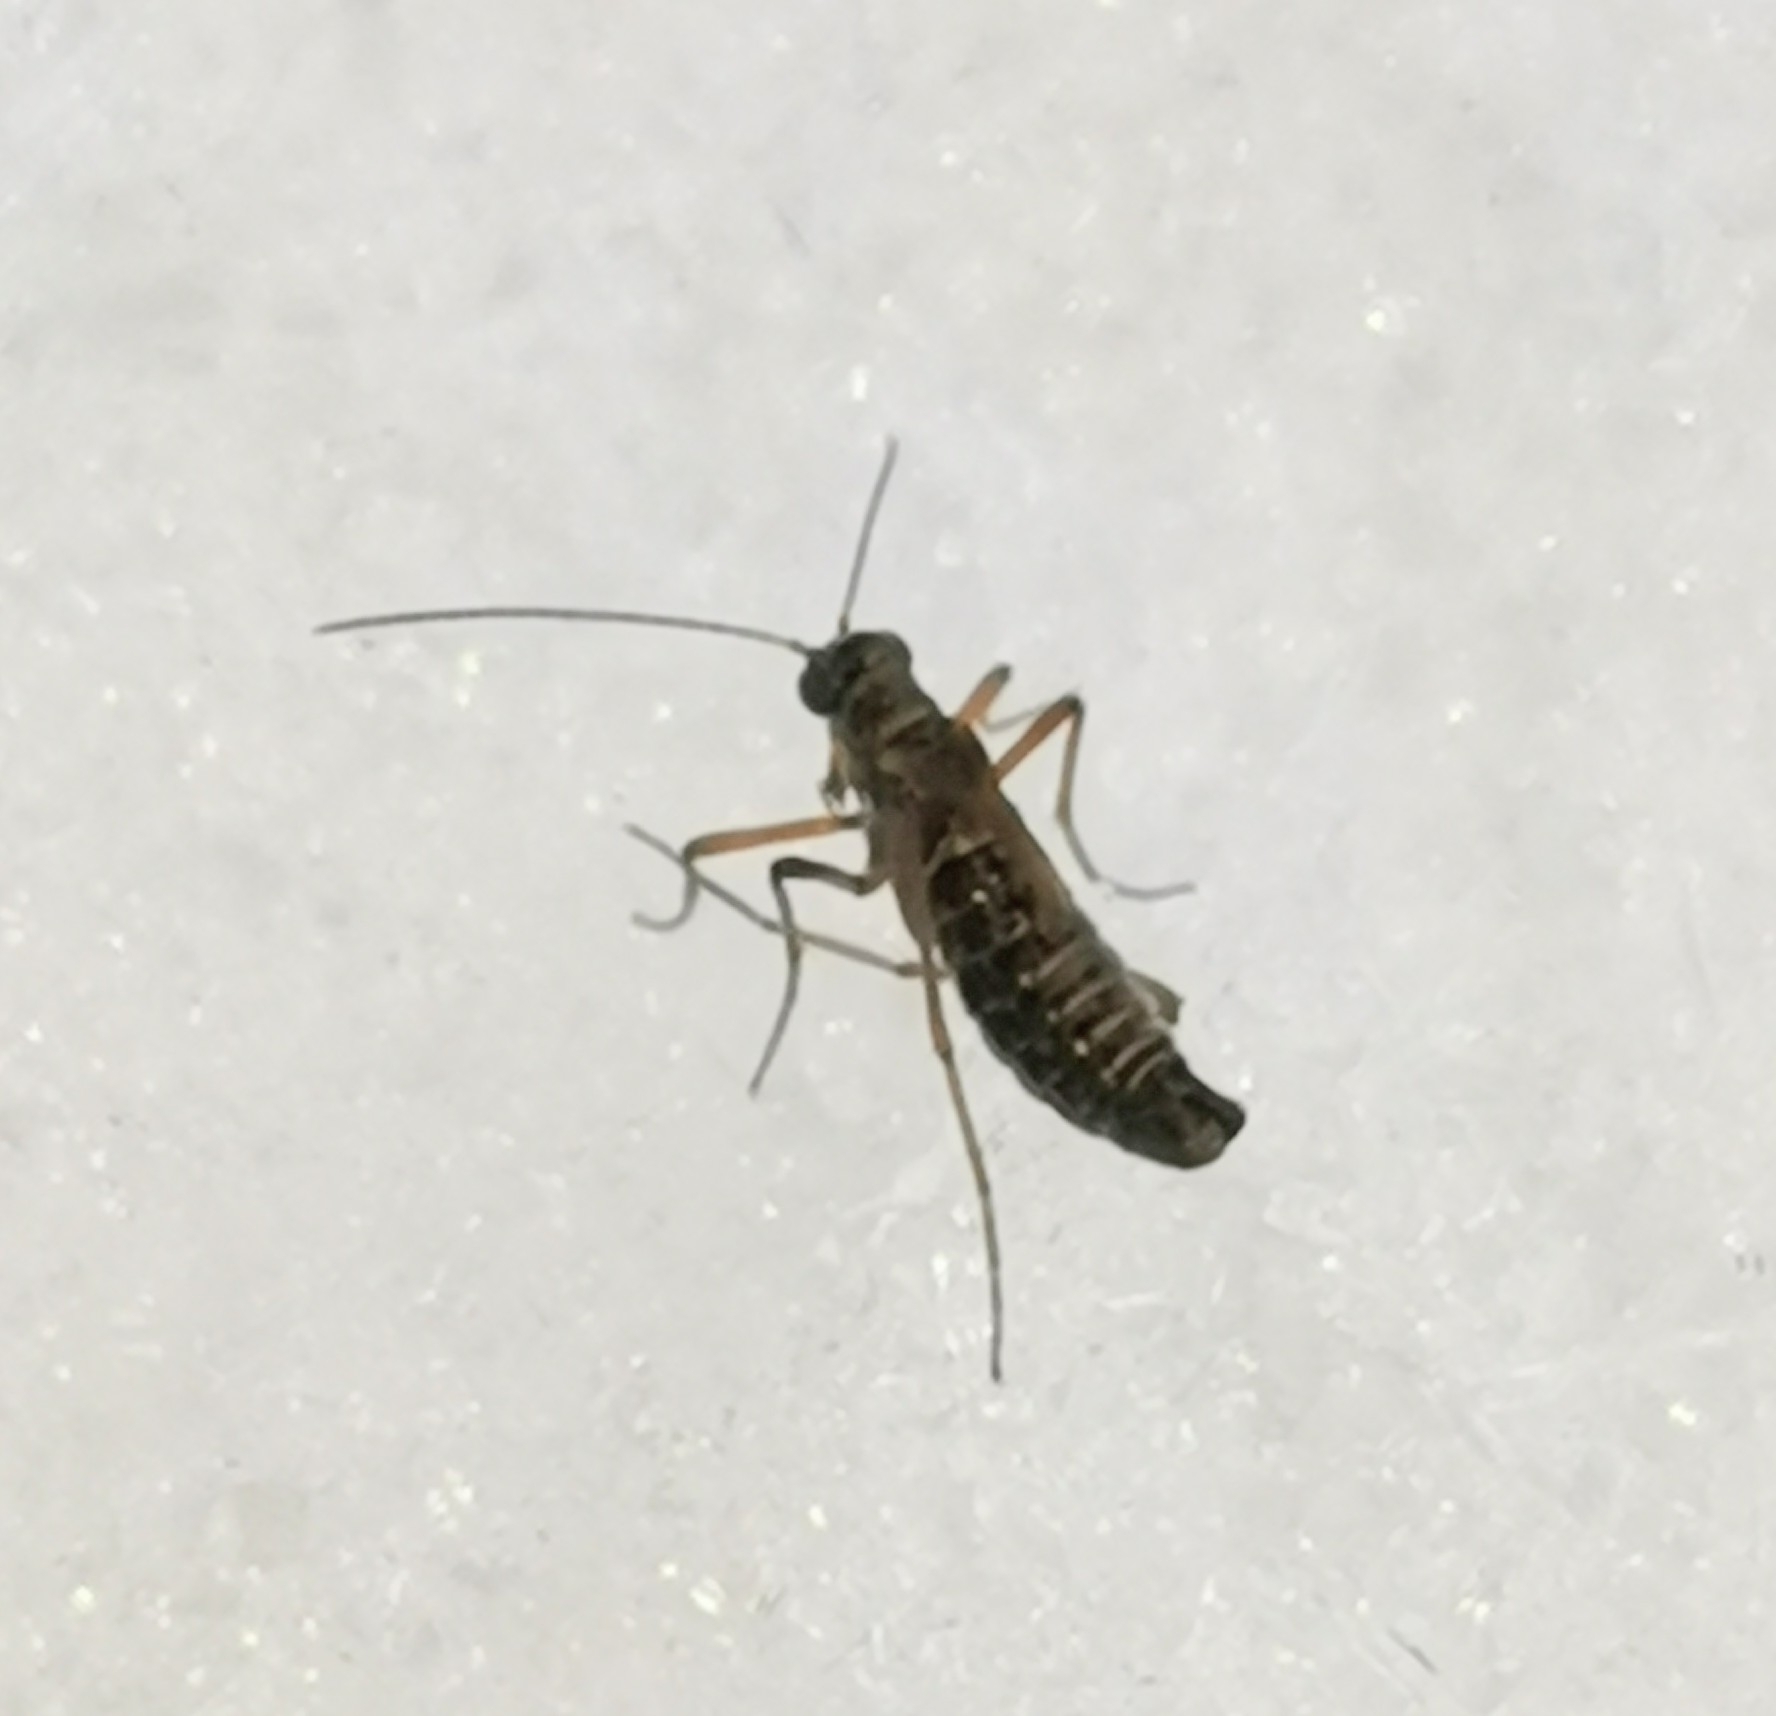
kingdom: Animalia
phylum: Arthropoda
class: Insecta
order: Mecoptera
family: Boreidae
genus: Boreus
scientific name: Boreus westwoodi
